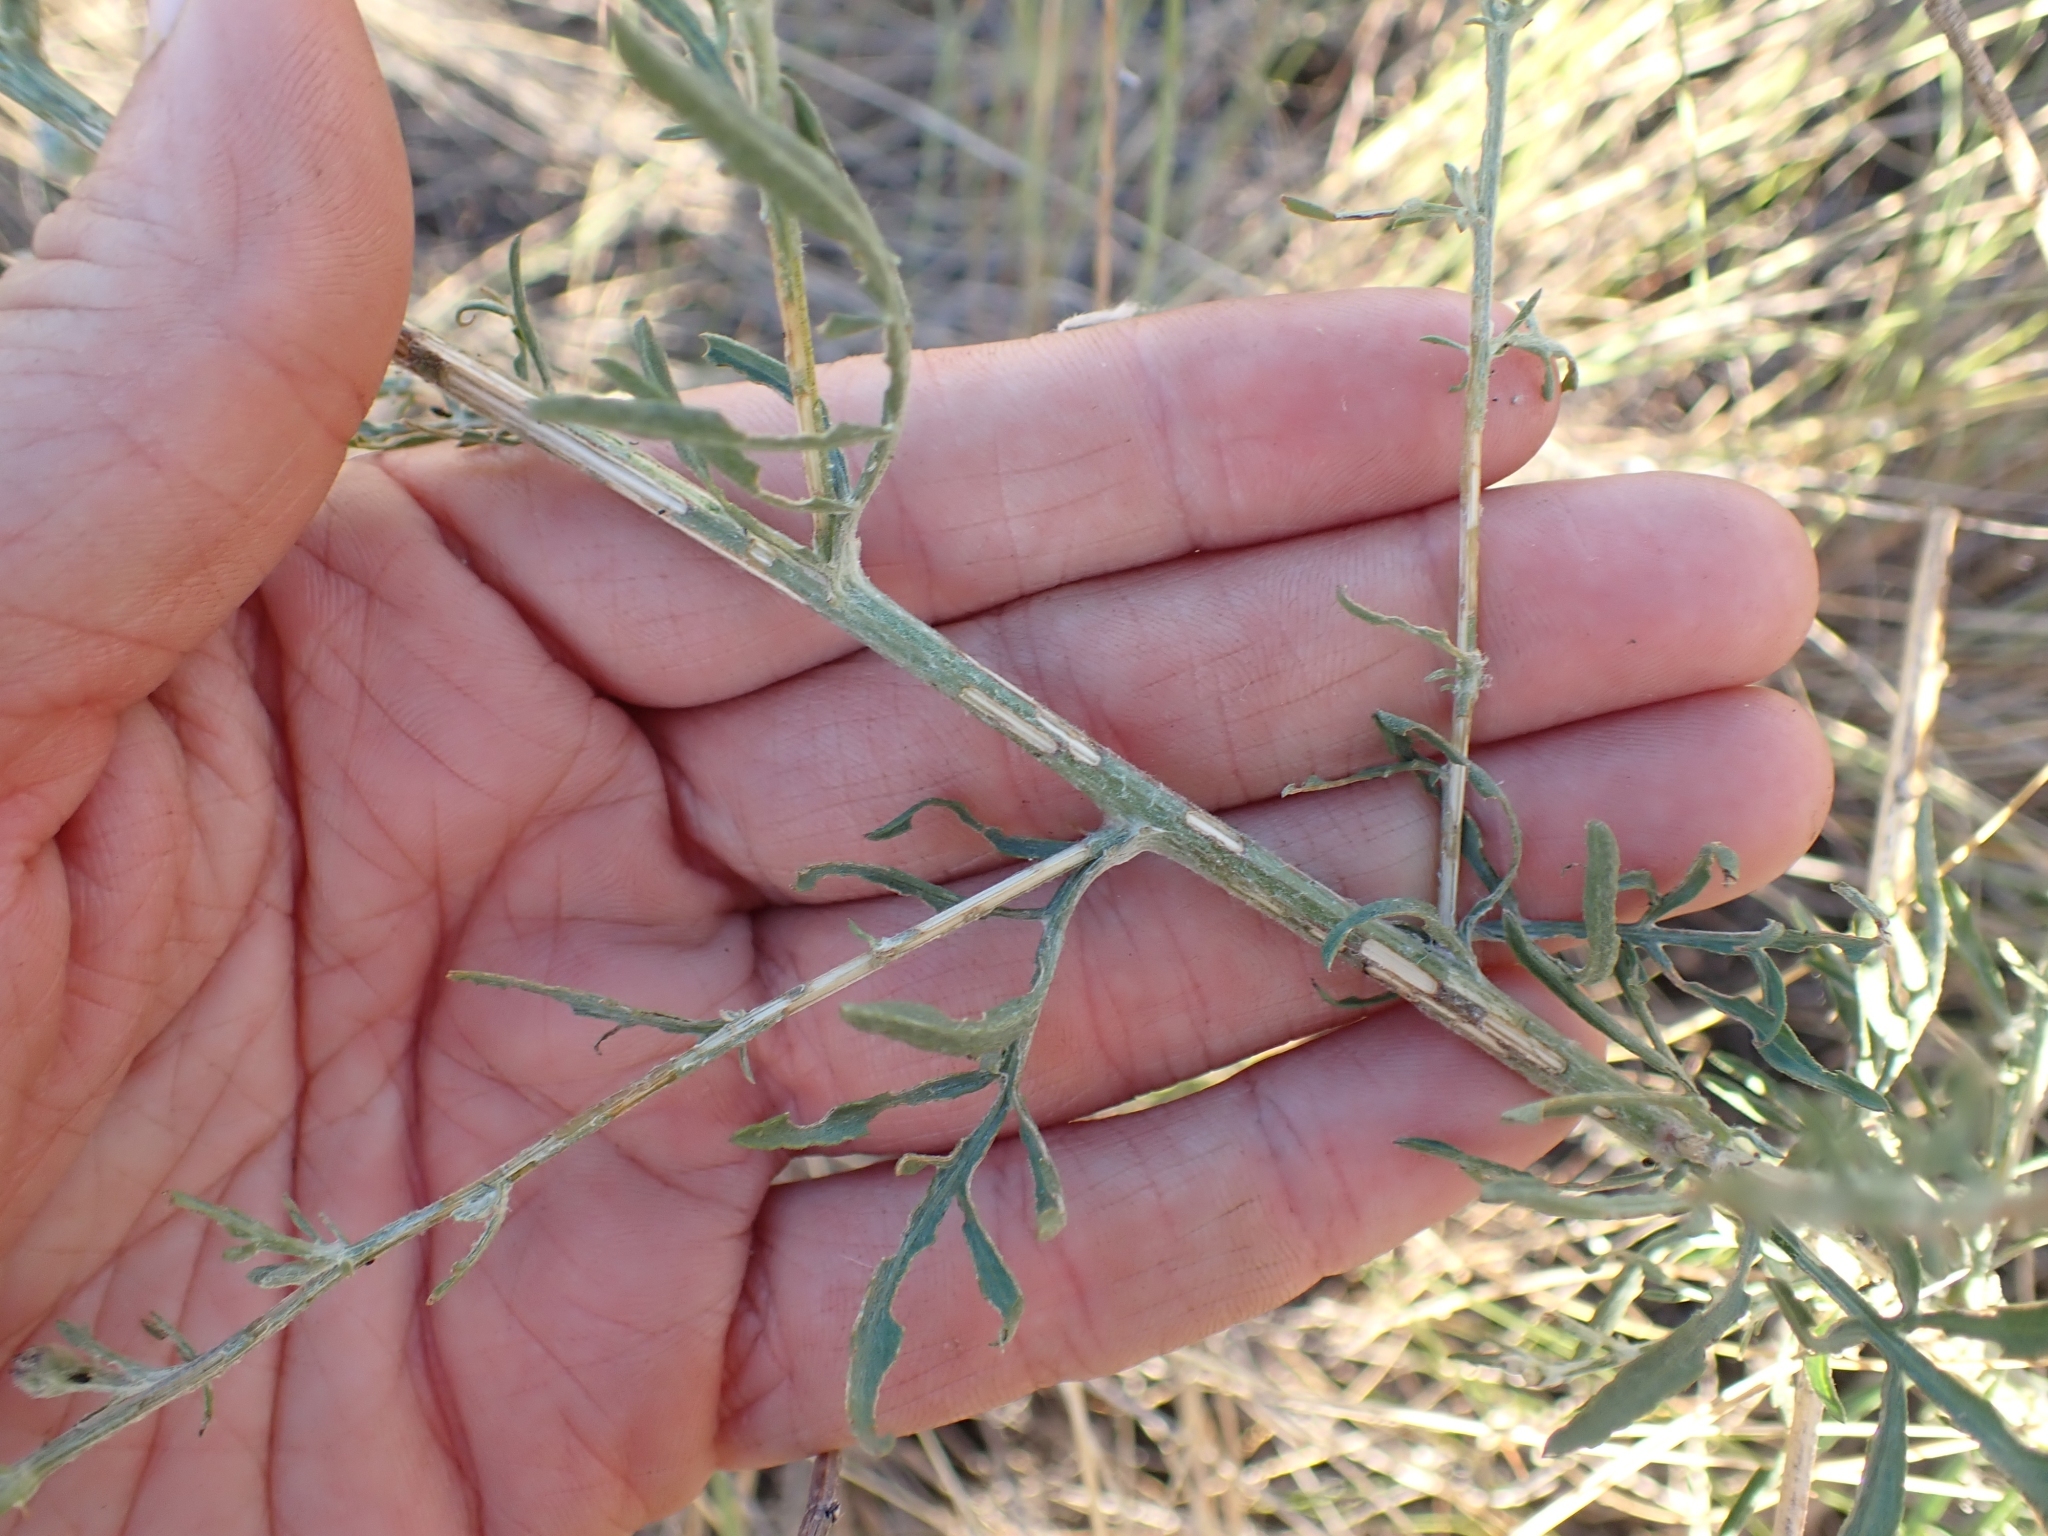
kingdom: Plantae
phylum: Tracheophyta
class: Magnoliopsida
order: Asterales
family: Asteraceae
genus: Centaurea
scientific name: Centaurea stoebe
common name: Spotted knapweed
